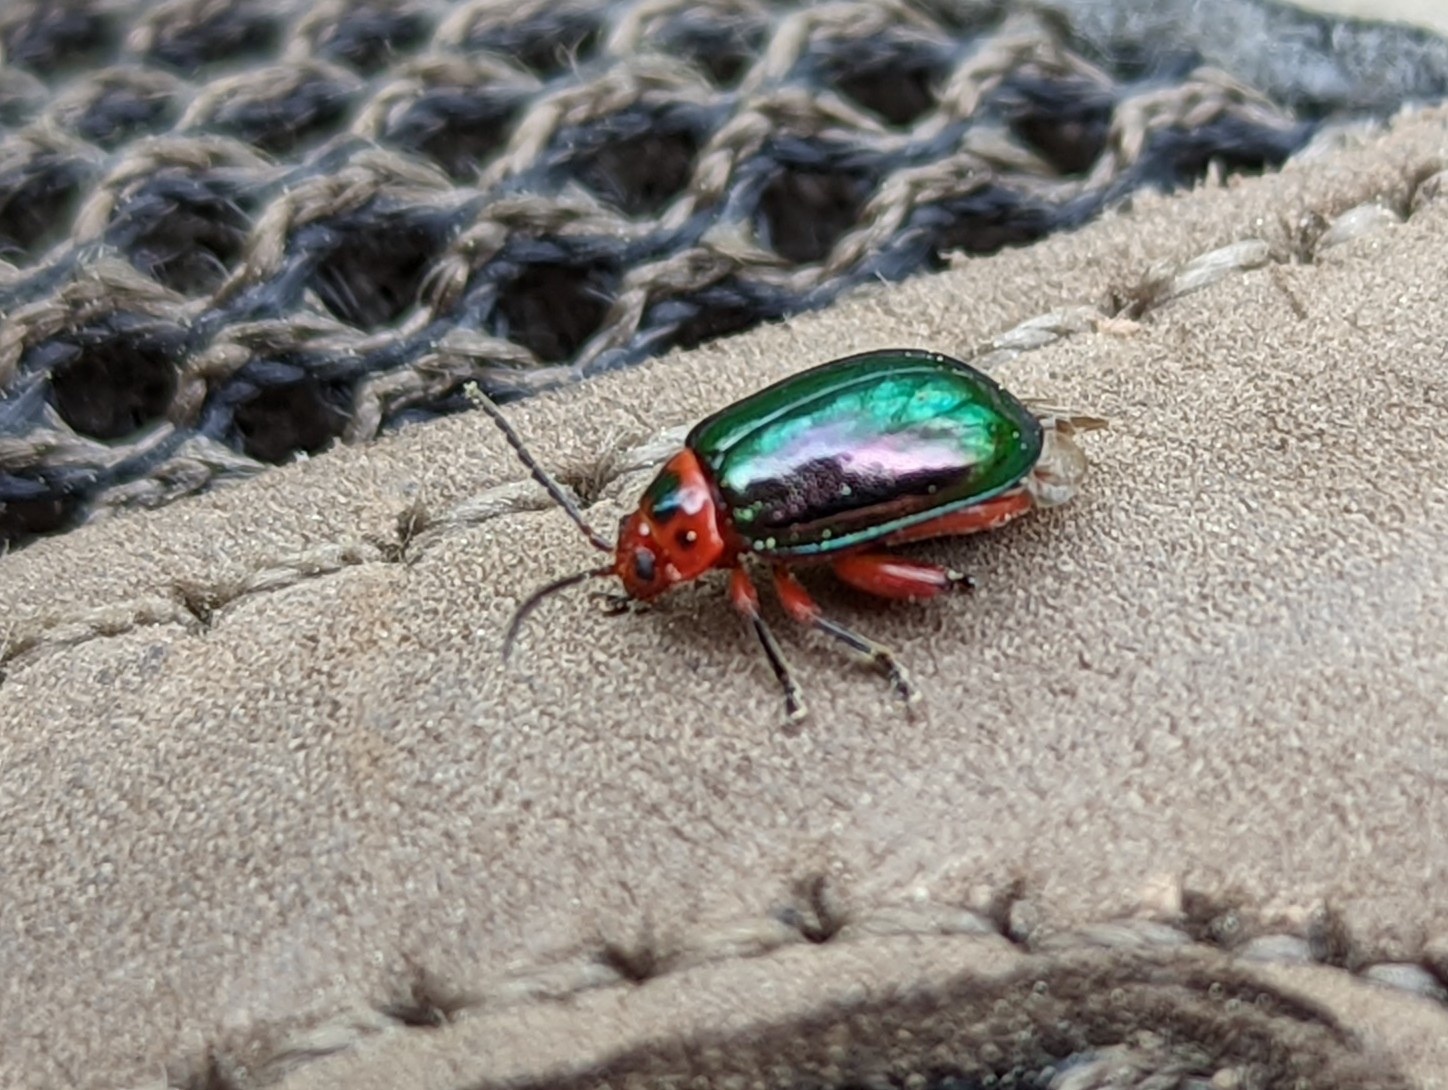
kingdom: Animalia
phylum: Arthropoda
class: Insecta
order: Coleoptera
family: Chrysomelidae
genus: Kuschelina
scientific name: Kuschelina gibbitarsa
